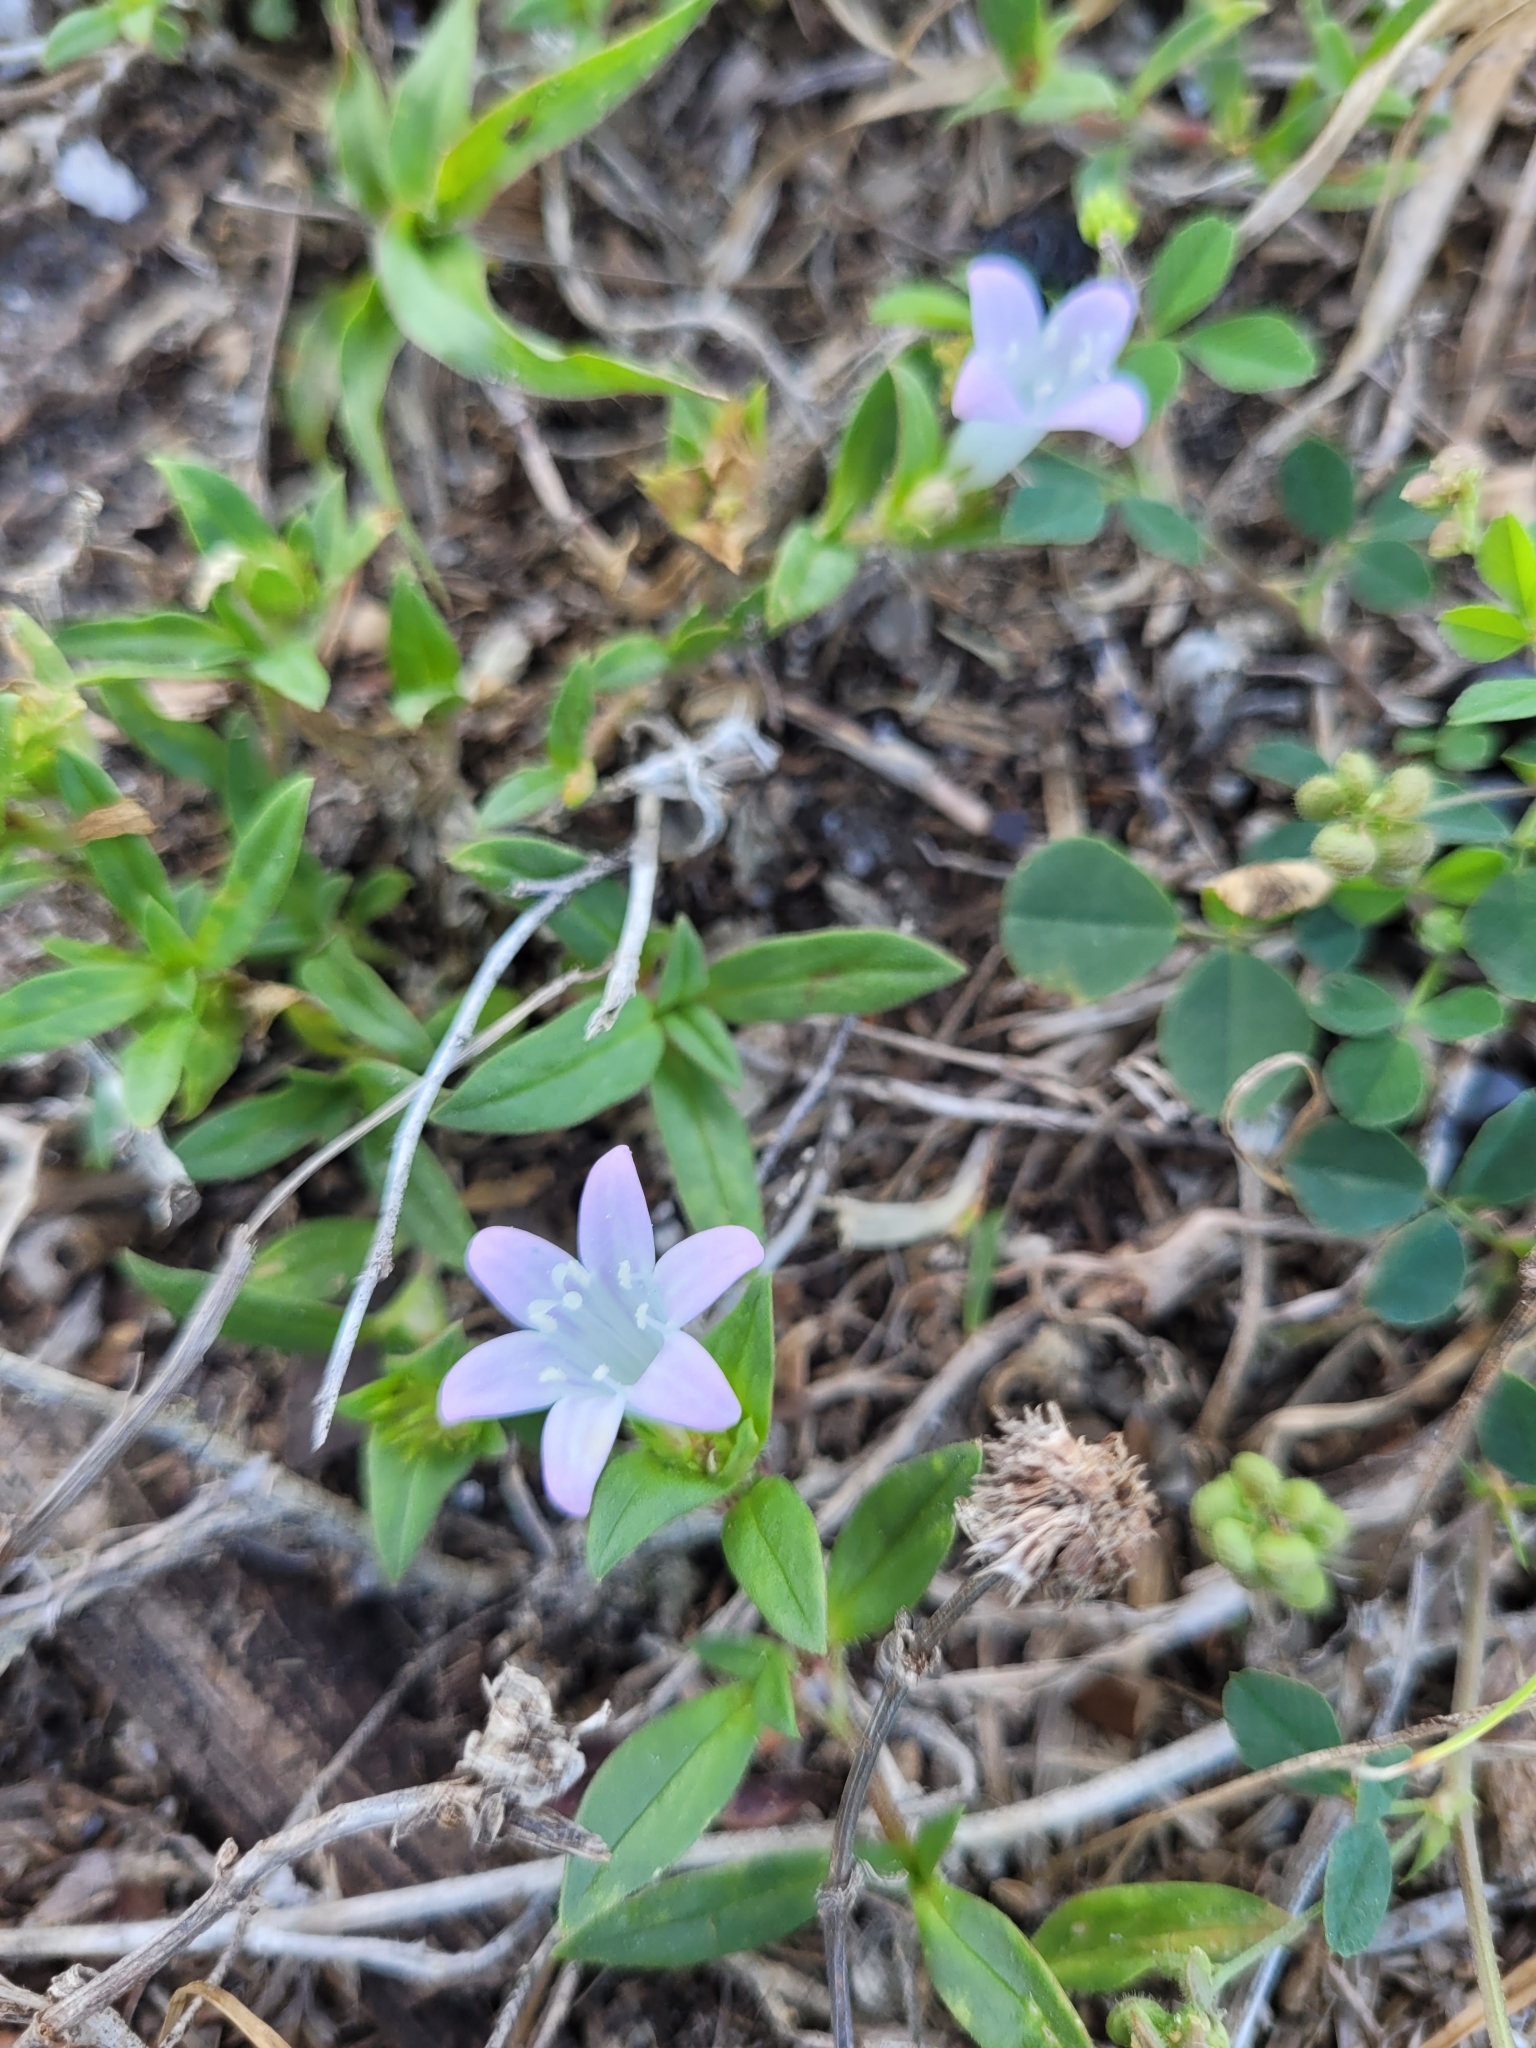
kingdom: Plantae
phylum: Tracheophyta
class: Magnoliopsida
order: Gentianales
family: Rubiaceae
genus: Richardia
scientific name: Richardia grandiflora
